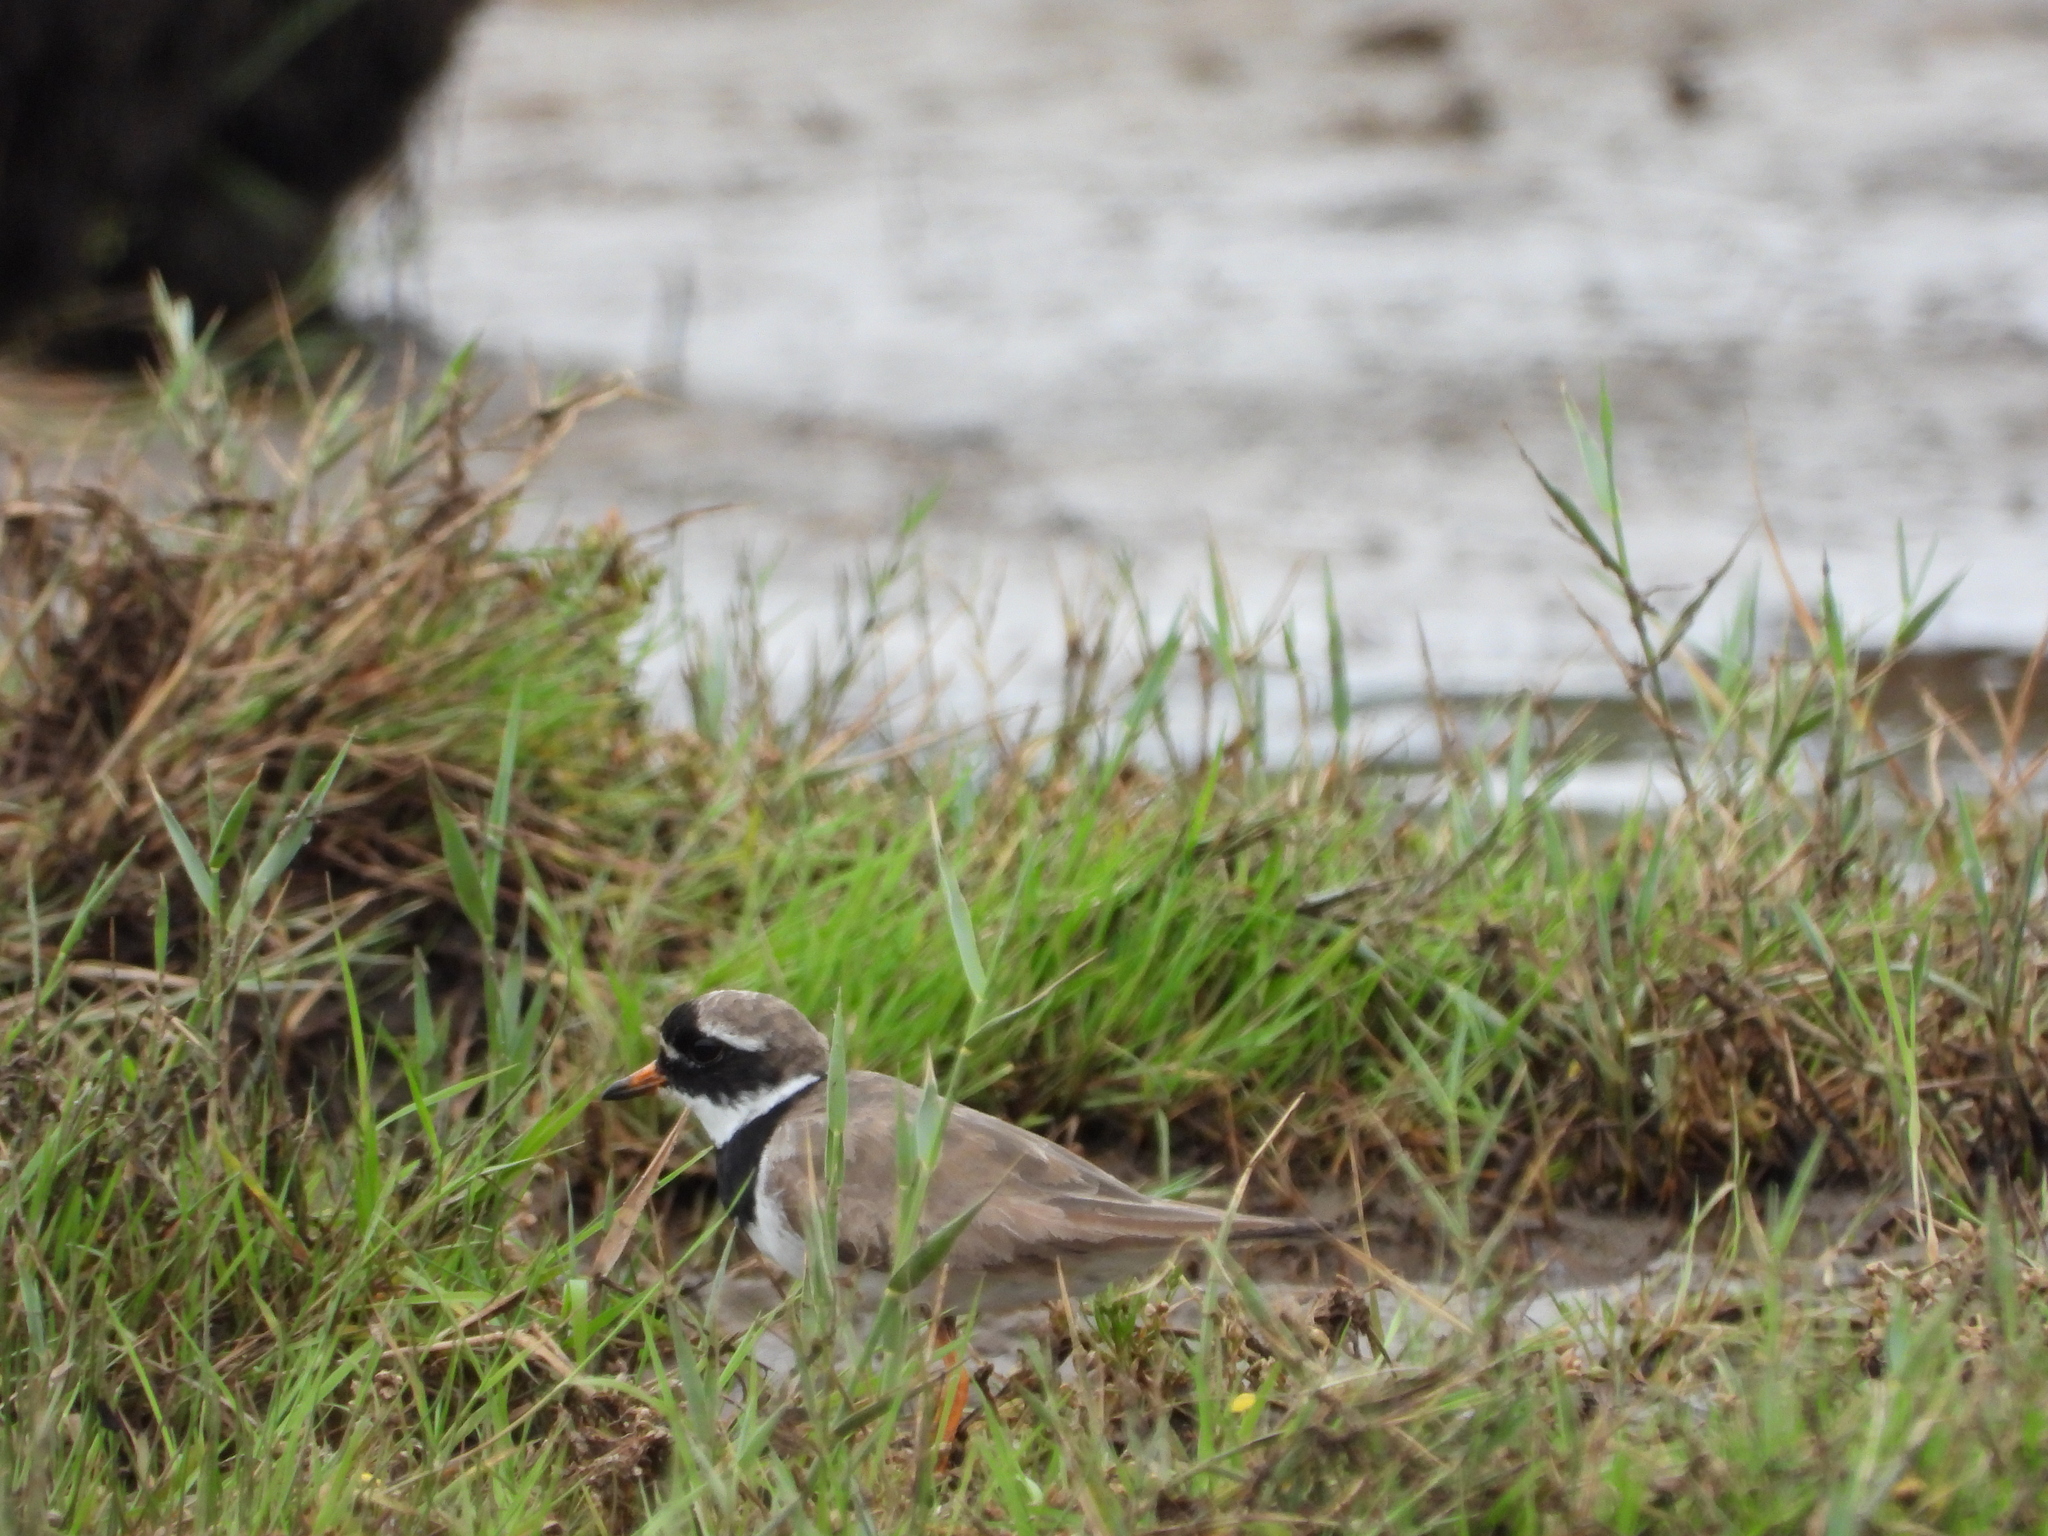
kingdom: Animalia
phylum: Chordata
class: Aves
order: Charadriiformes
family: Charadriidae
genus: Charadrius
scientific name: Charadrius hiaticula
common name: Common ringed plover
